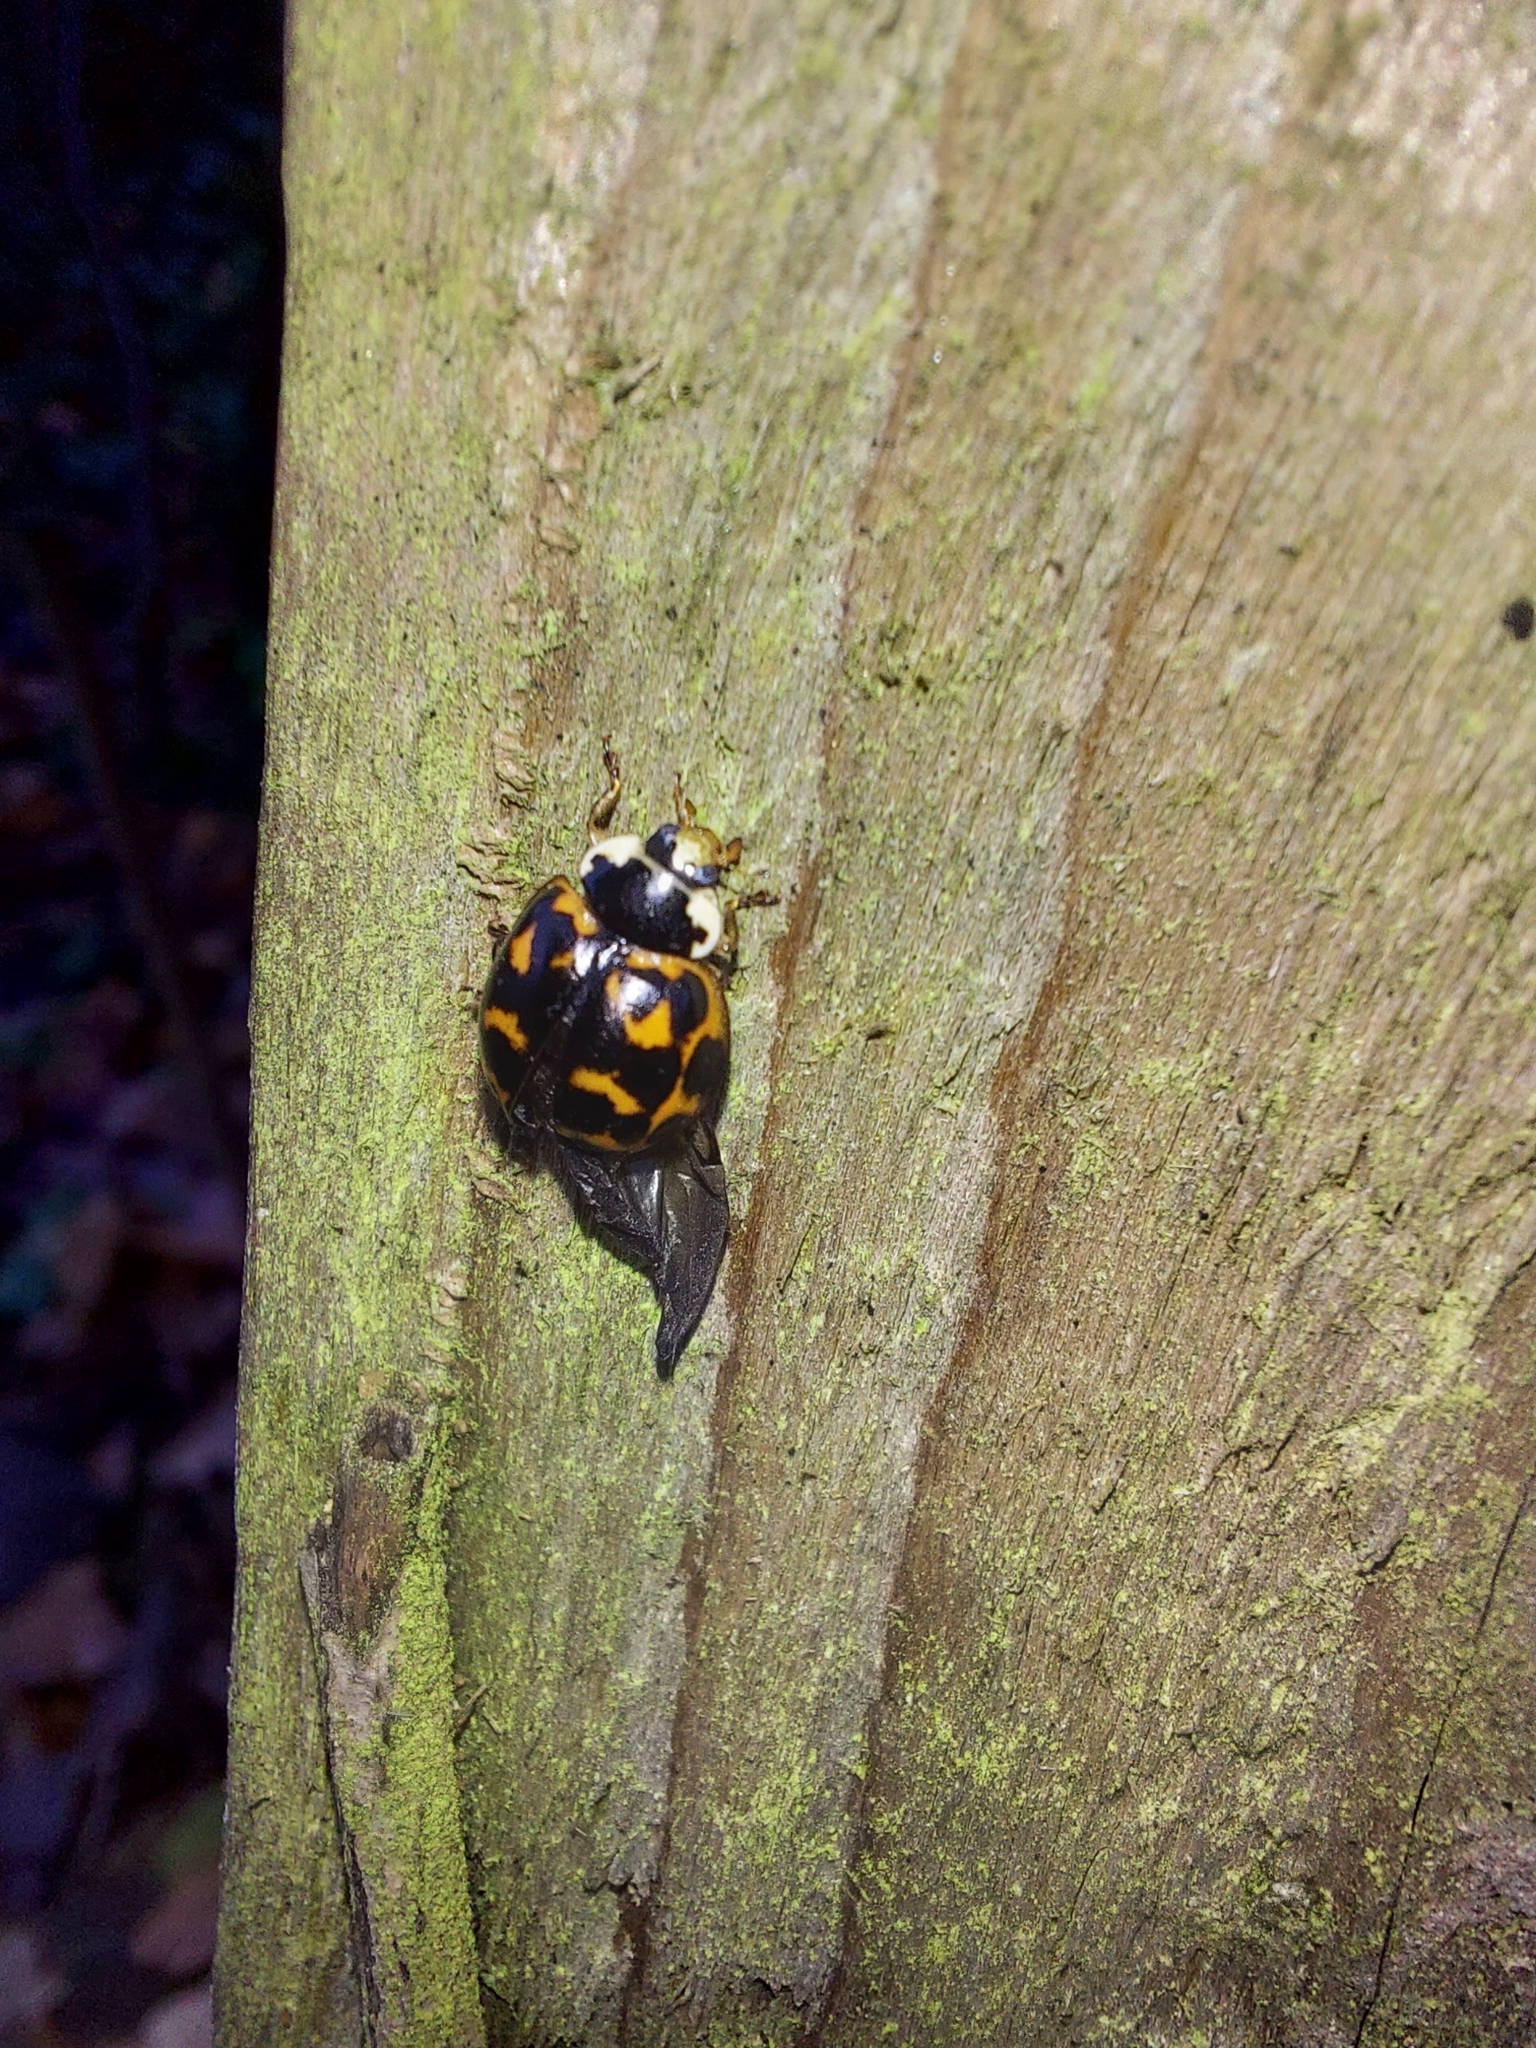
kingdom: Animalia
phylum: Arthropoda
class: Insecta
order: Coleoptera
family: Coccinellidae
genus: Harmonia
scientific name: Harmonia axyridis
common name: Harlequin ladybird
